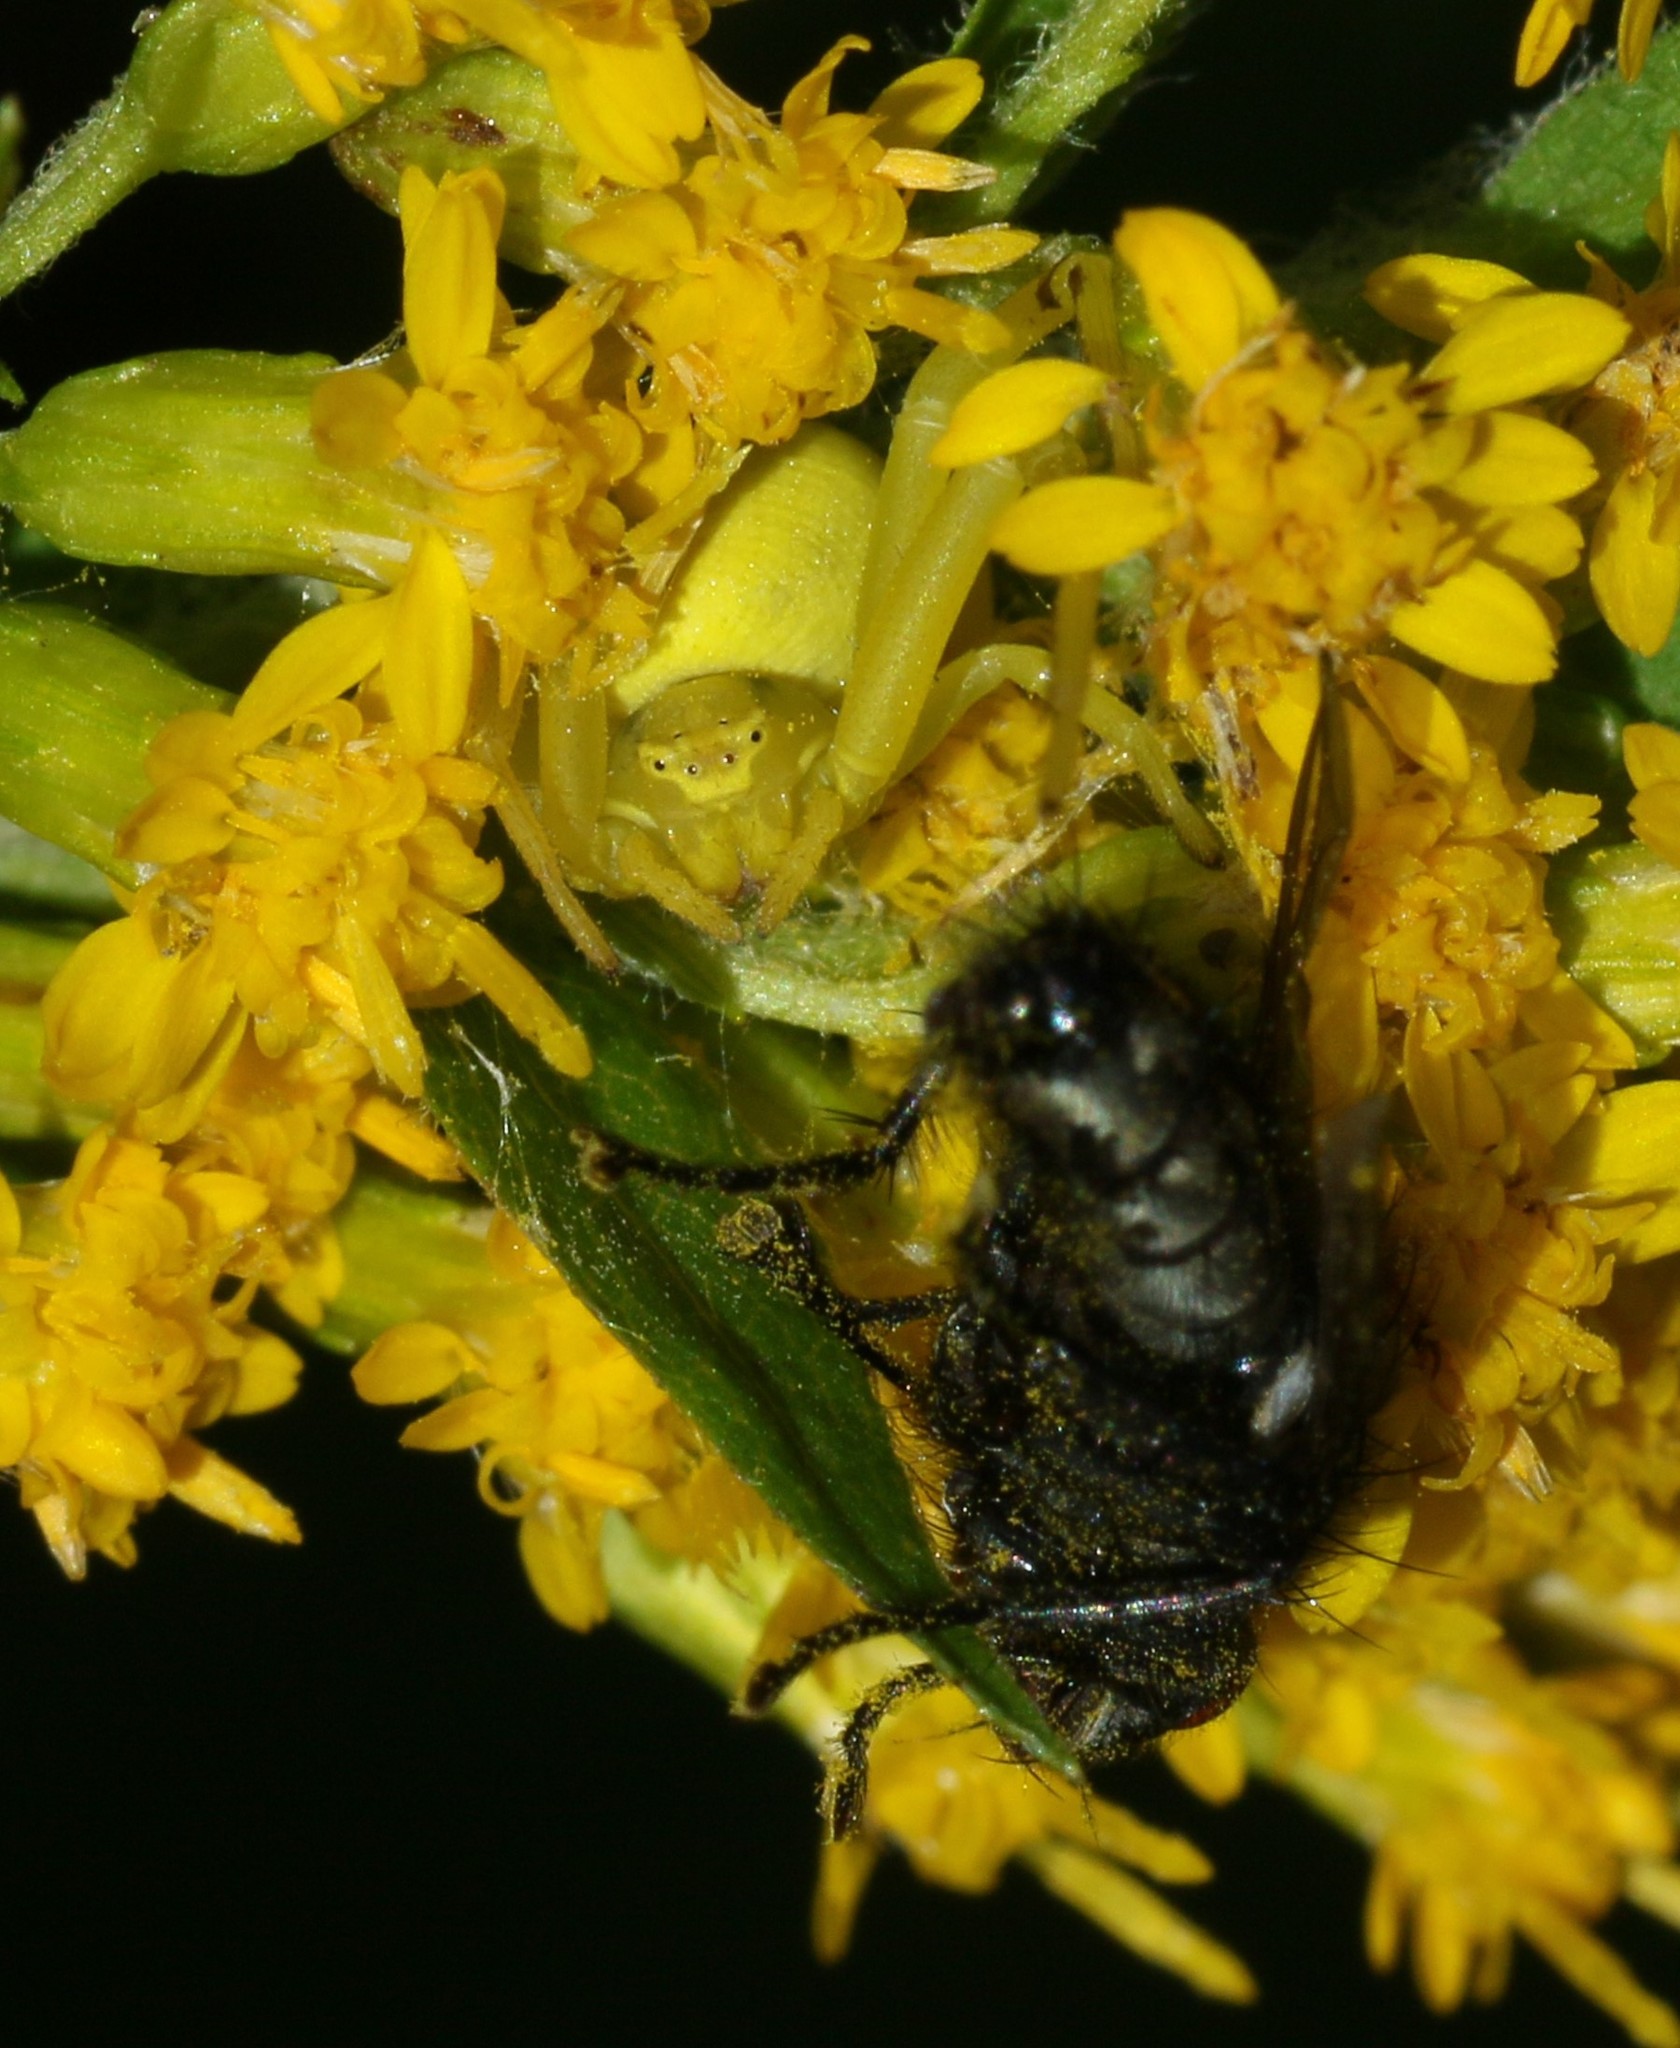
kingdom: Animalia
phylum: Arthropoda
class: Arachnida
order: Araneae
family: Thomisidae
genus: Misumena
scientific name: Misumena vatia
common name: Goldenrod crab spider
